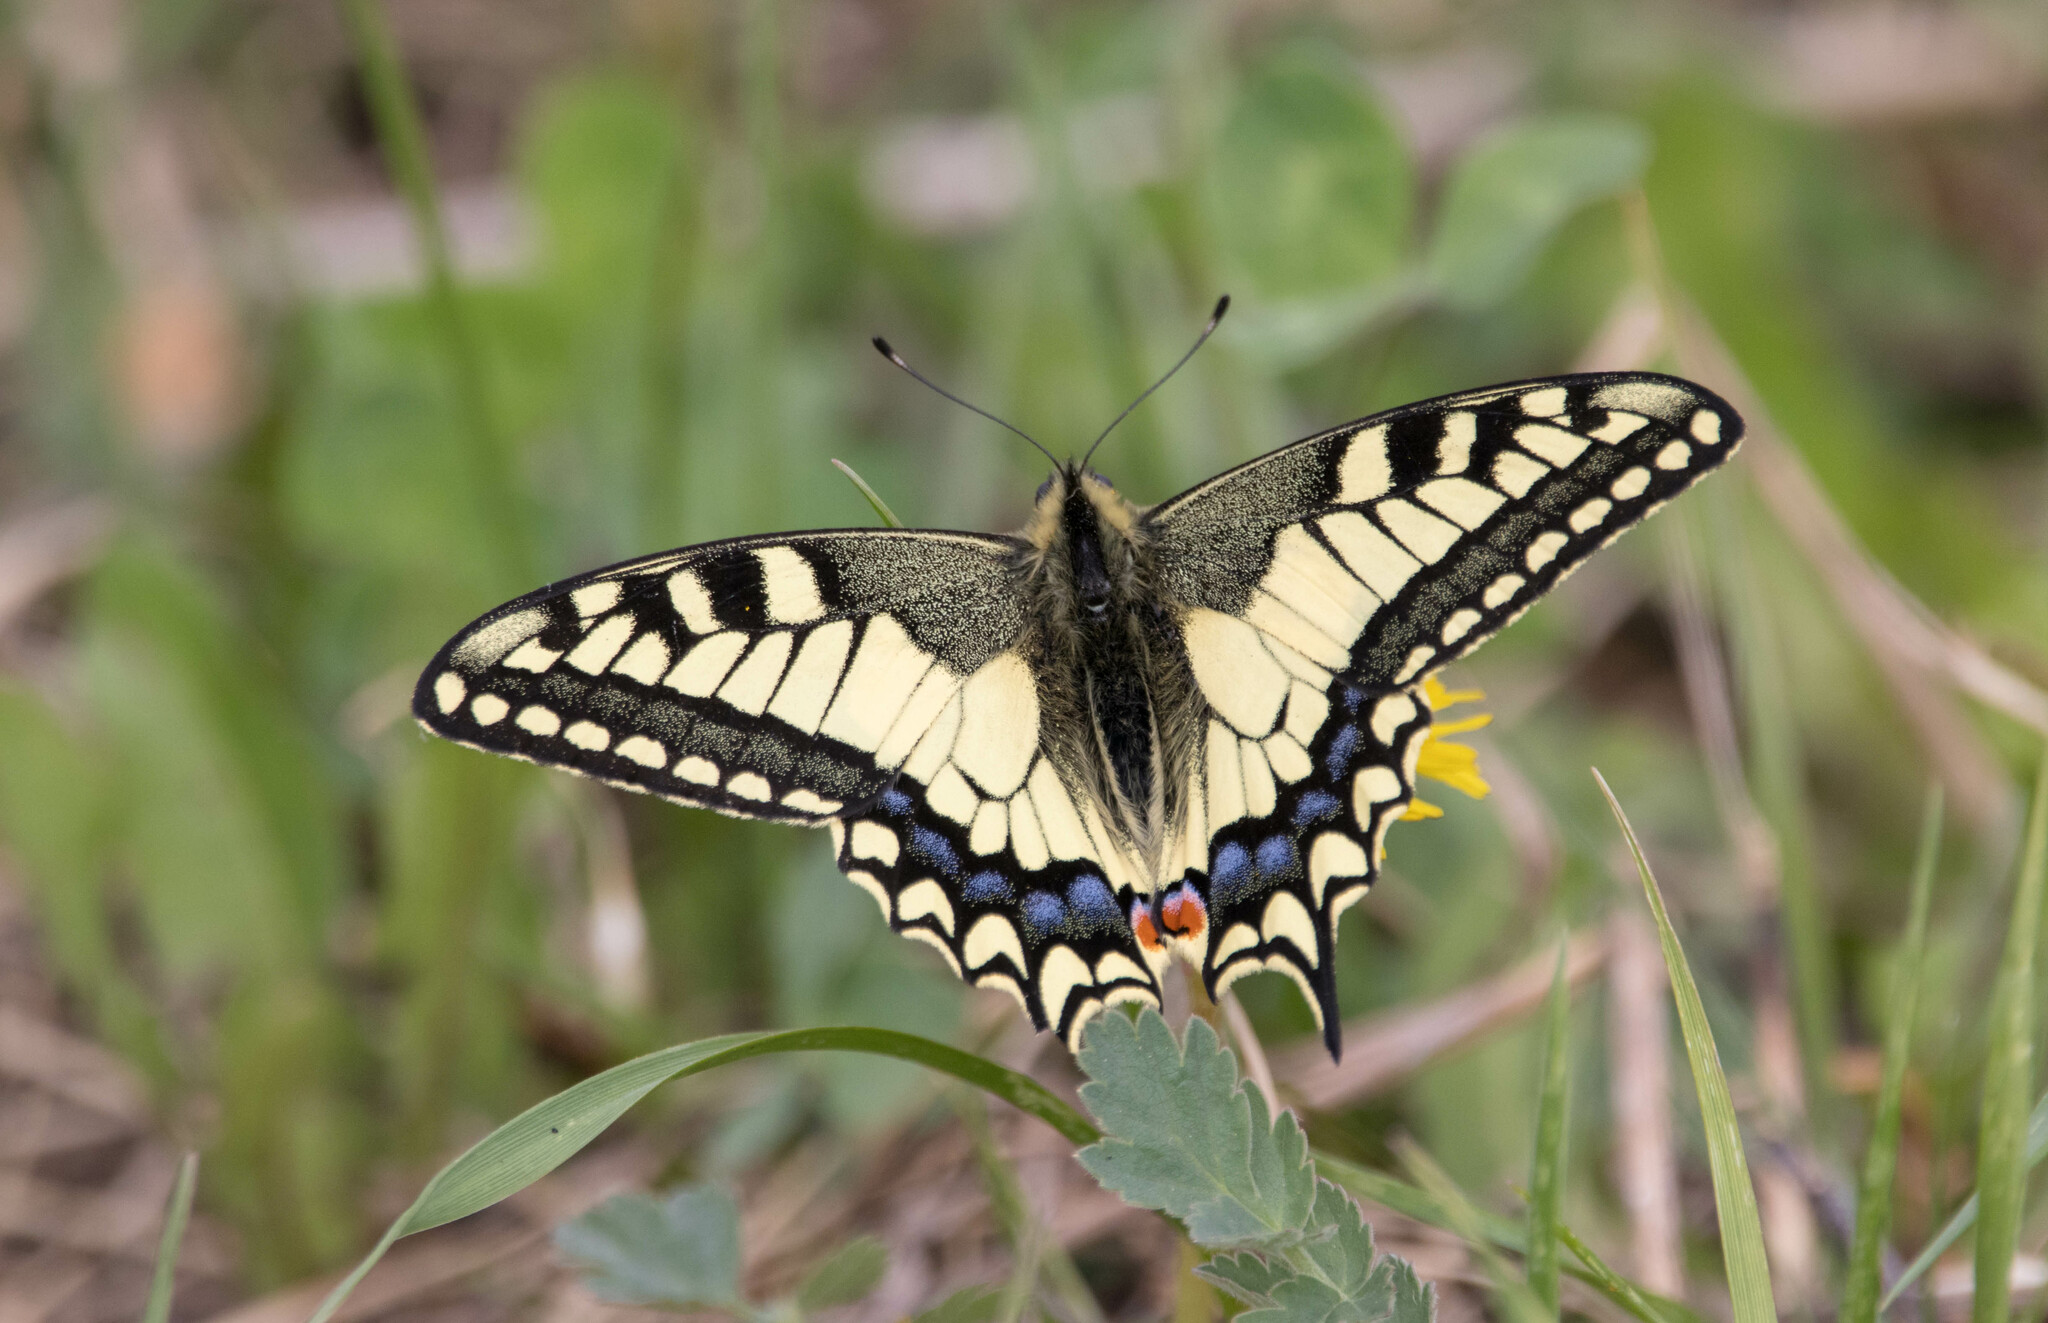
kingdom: Animalia
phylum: Arthropoda
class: Insecta
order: Lepidoptera
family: Papilionidae
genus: Papilio
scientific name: Papilio machaon
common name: Swallowtail
